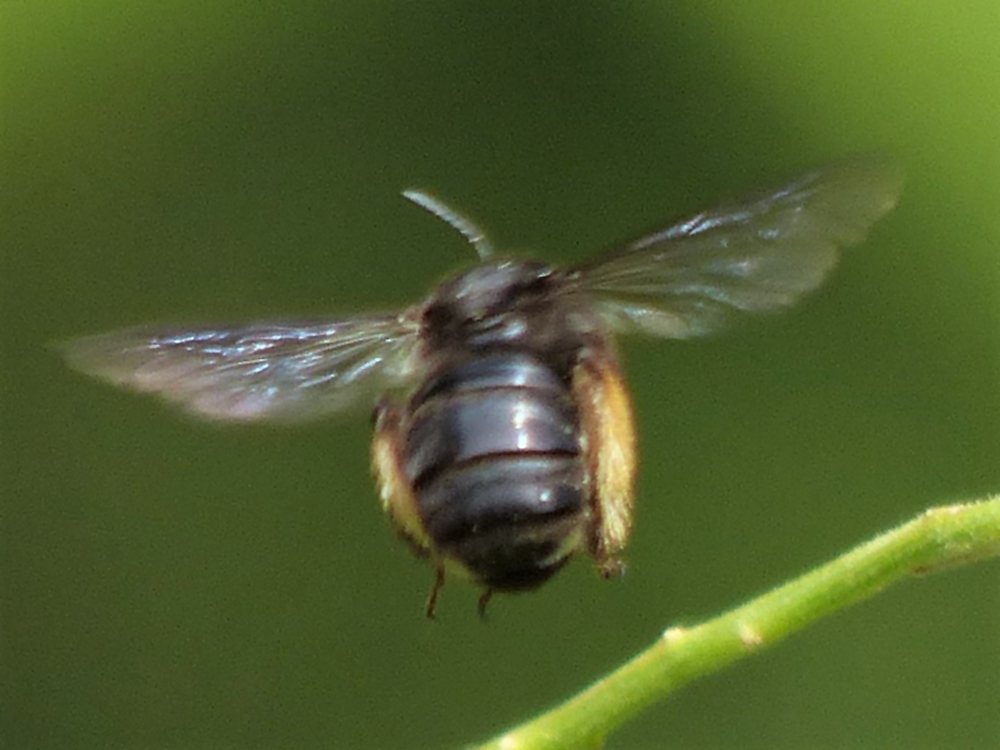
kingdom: Animalia
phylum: Arthropoda
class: Insecta
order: Hymenoptera
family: Apidae
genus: Melissodes
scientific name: Melissodes bimaculatus
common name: Two-spotted long-horned bee
